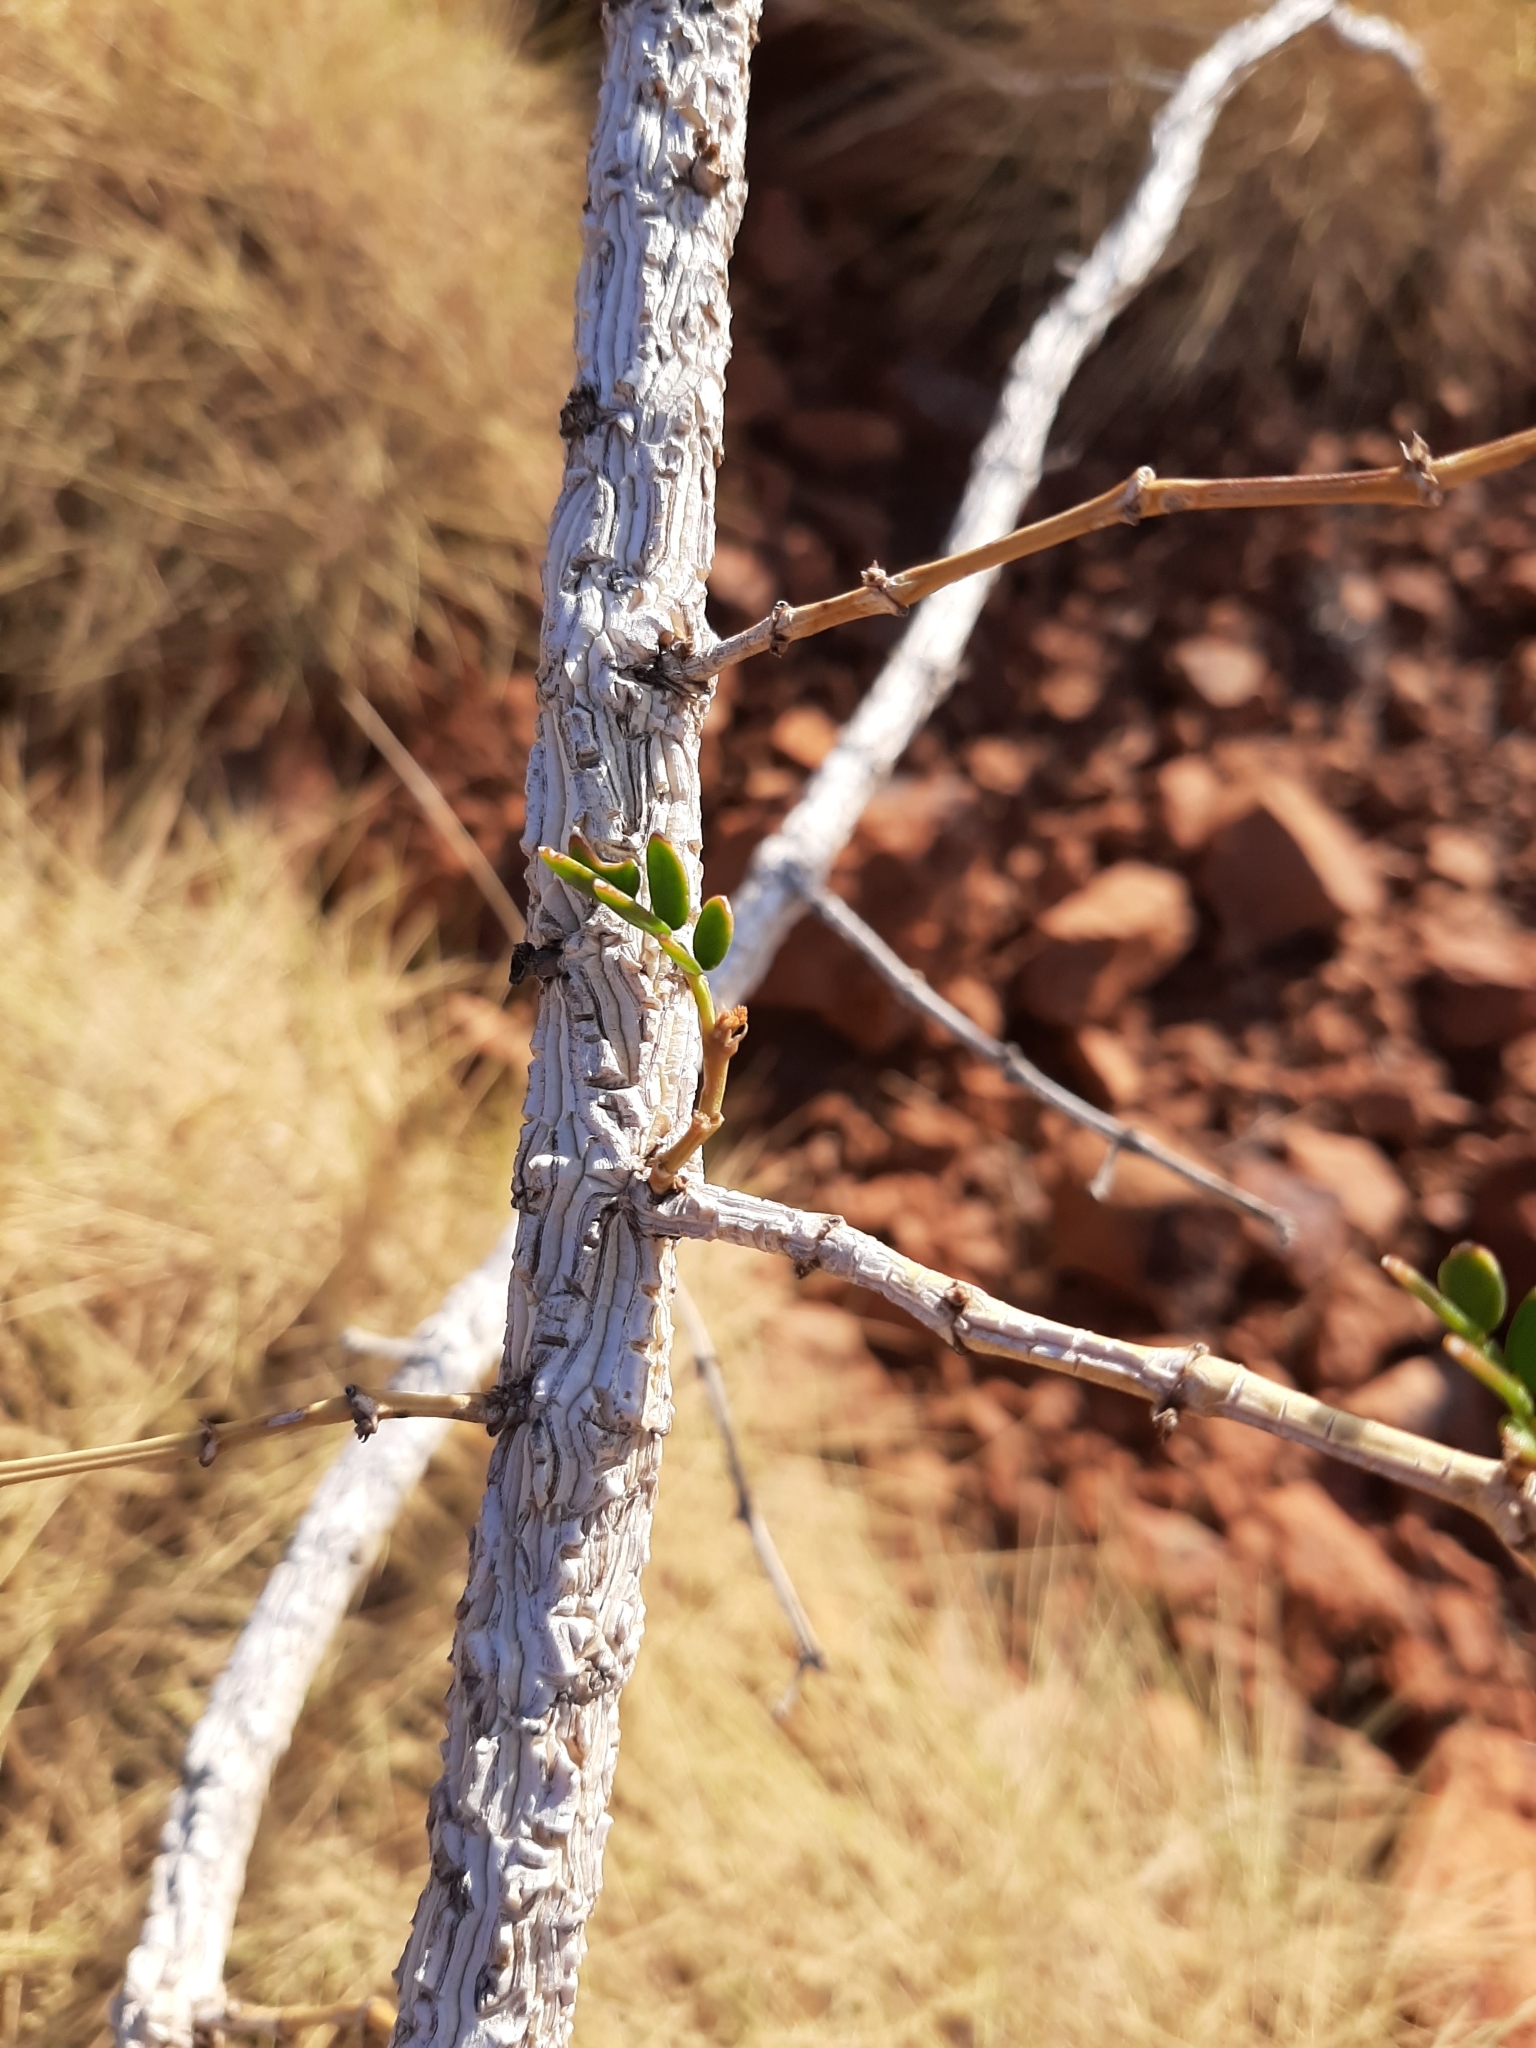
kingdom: Plantae
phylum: Tracheophyta
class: Magnoliopsida
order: Zygophyllales
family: Zygophyllaceae
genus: Tribulus
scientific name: Tribulus suberosus
